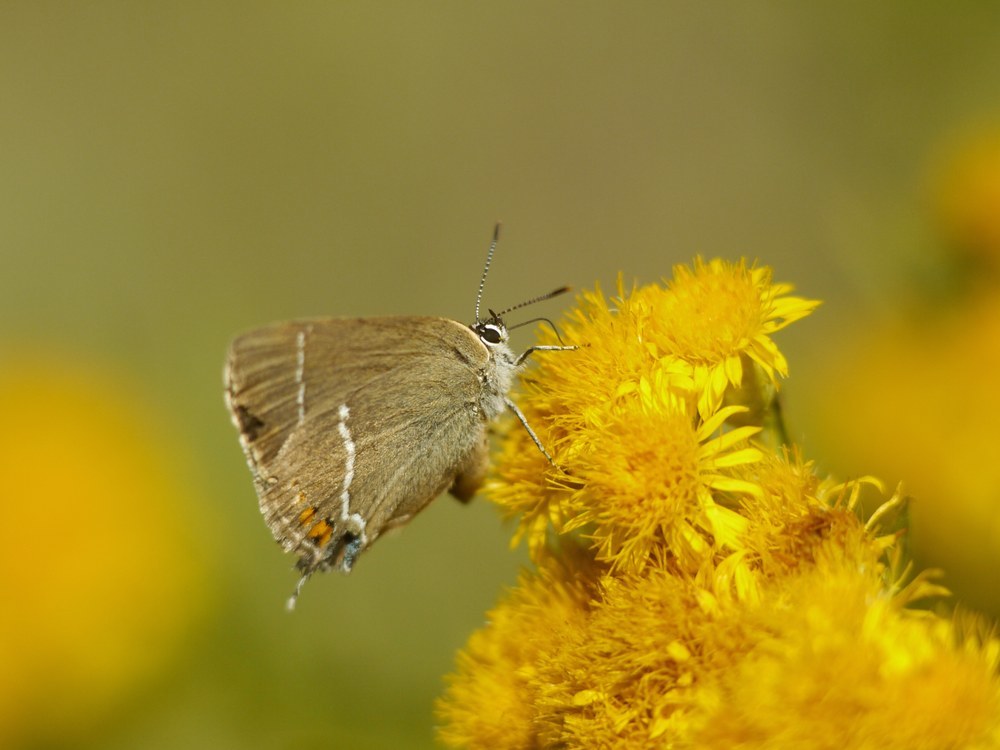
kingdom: Animalia
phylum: Arthropoda
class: Insecta
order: Lepidoptera
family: Lycaenidae
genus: Tuttiola
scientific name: Tuttiola spini
